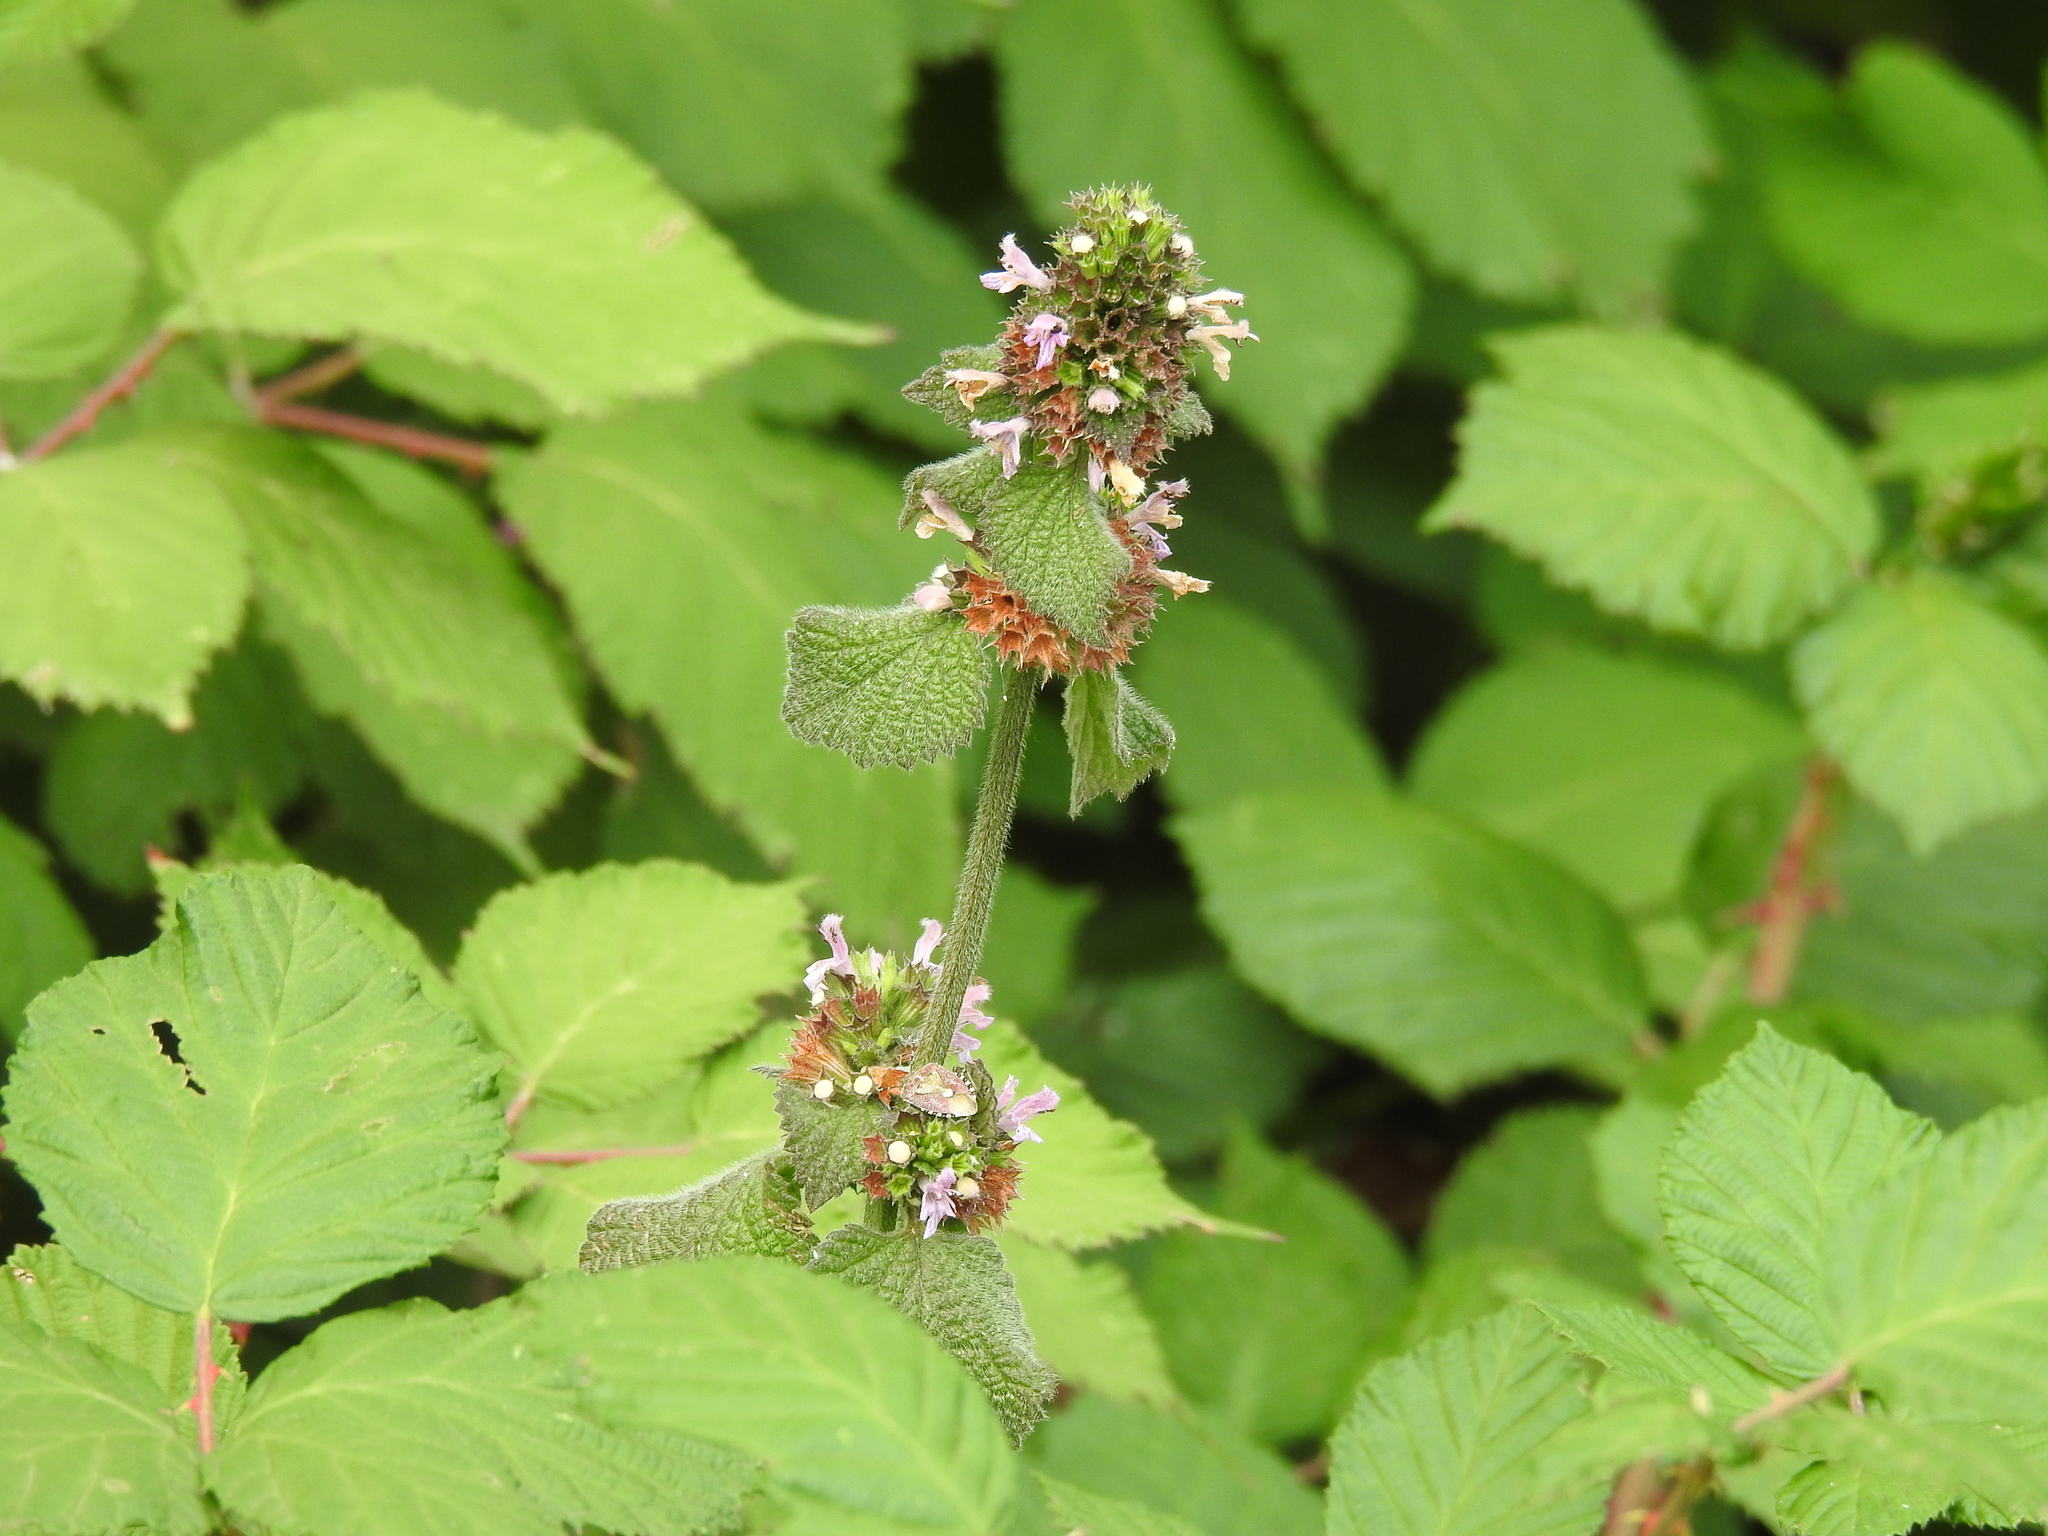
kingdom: Plantae
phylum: Tracheophyta
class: Magnoliopsida
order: Lamiales
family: Lamiaceae
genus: Ballota
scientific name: Ballota nigra
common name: Black horehound
